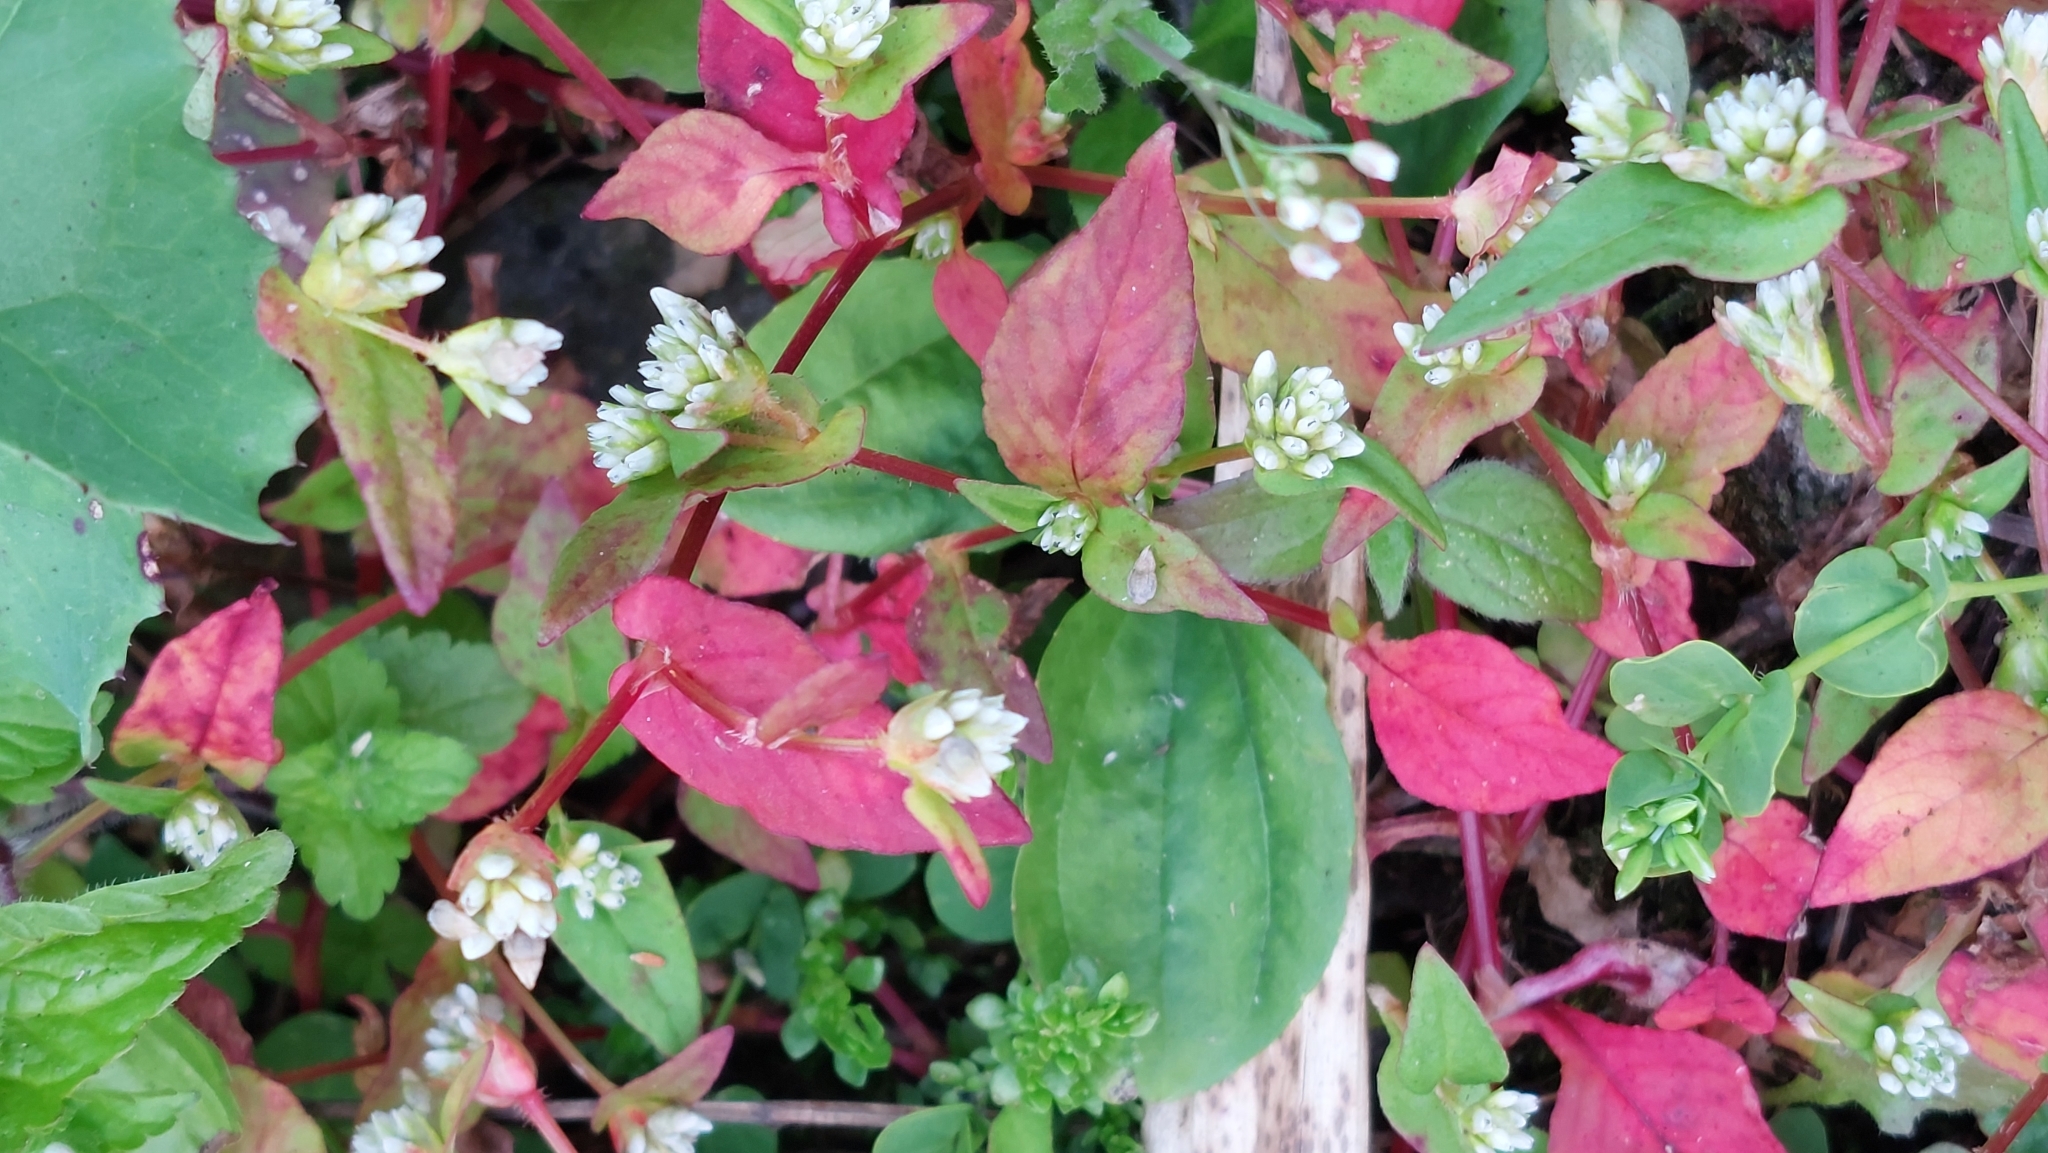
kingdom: Plantae
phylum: Tracheophyta
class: Magnoliopsida
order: Caryophyllales
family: Polygonaceae
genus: Persicaria
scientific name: Persicaria nepalensis
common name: Nepal persicaria
